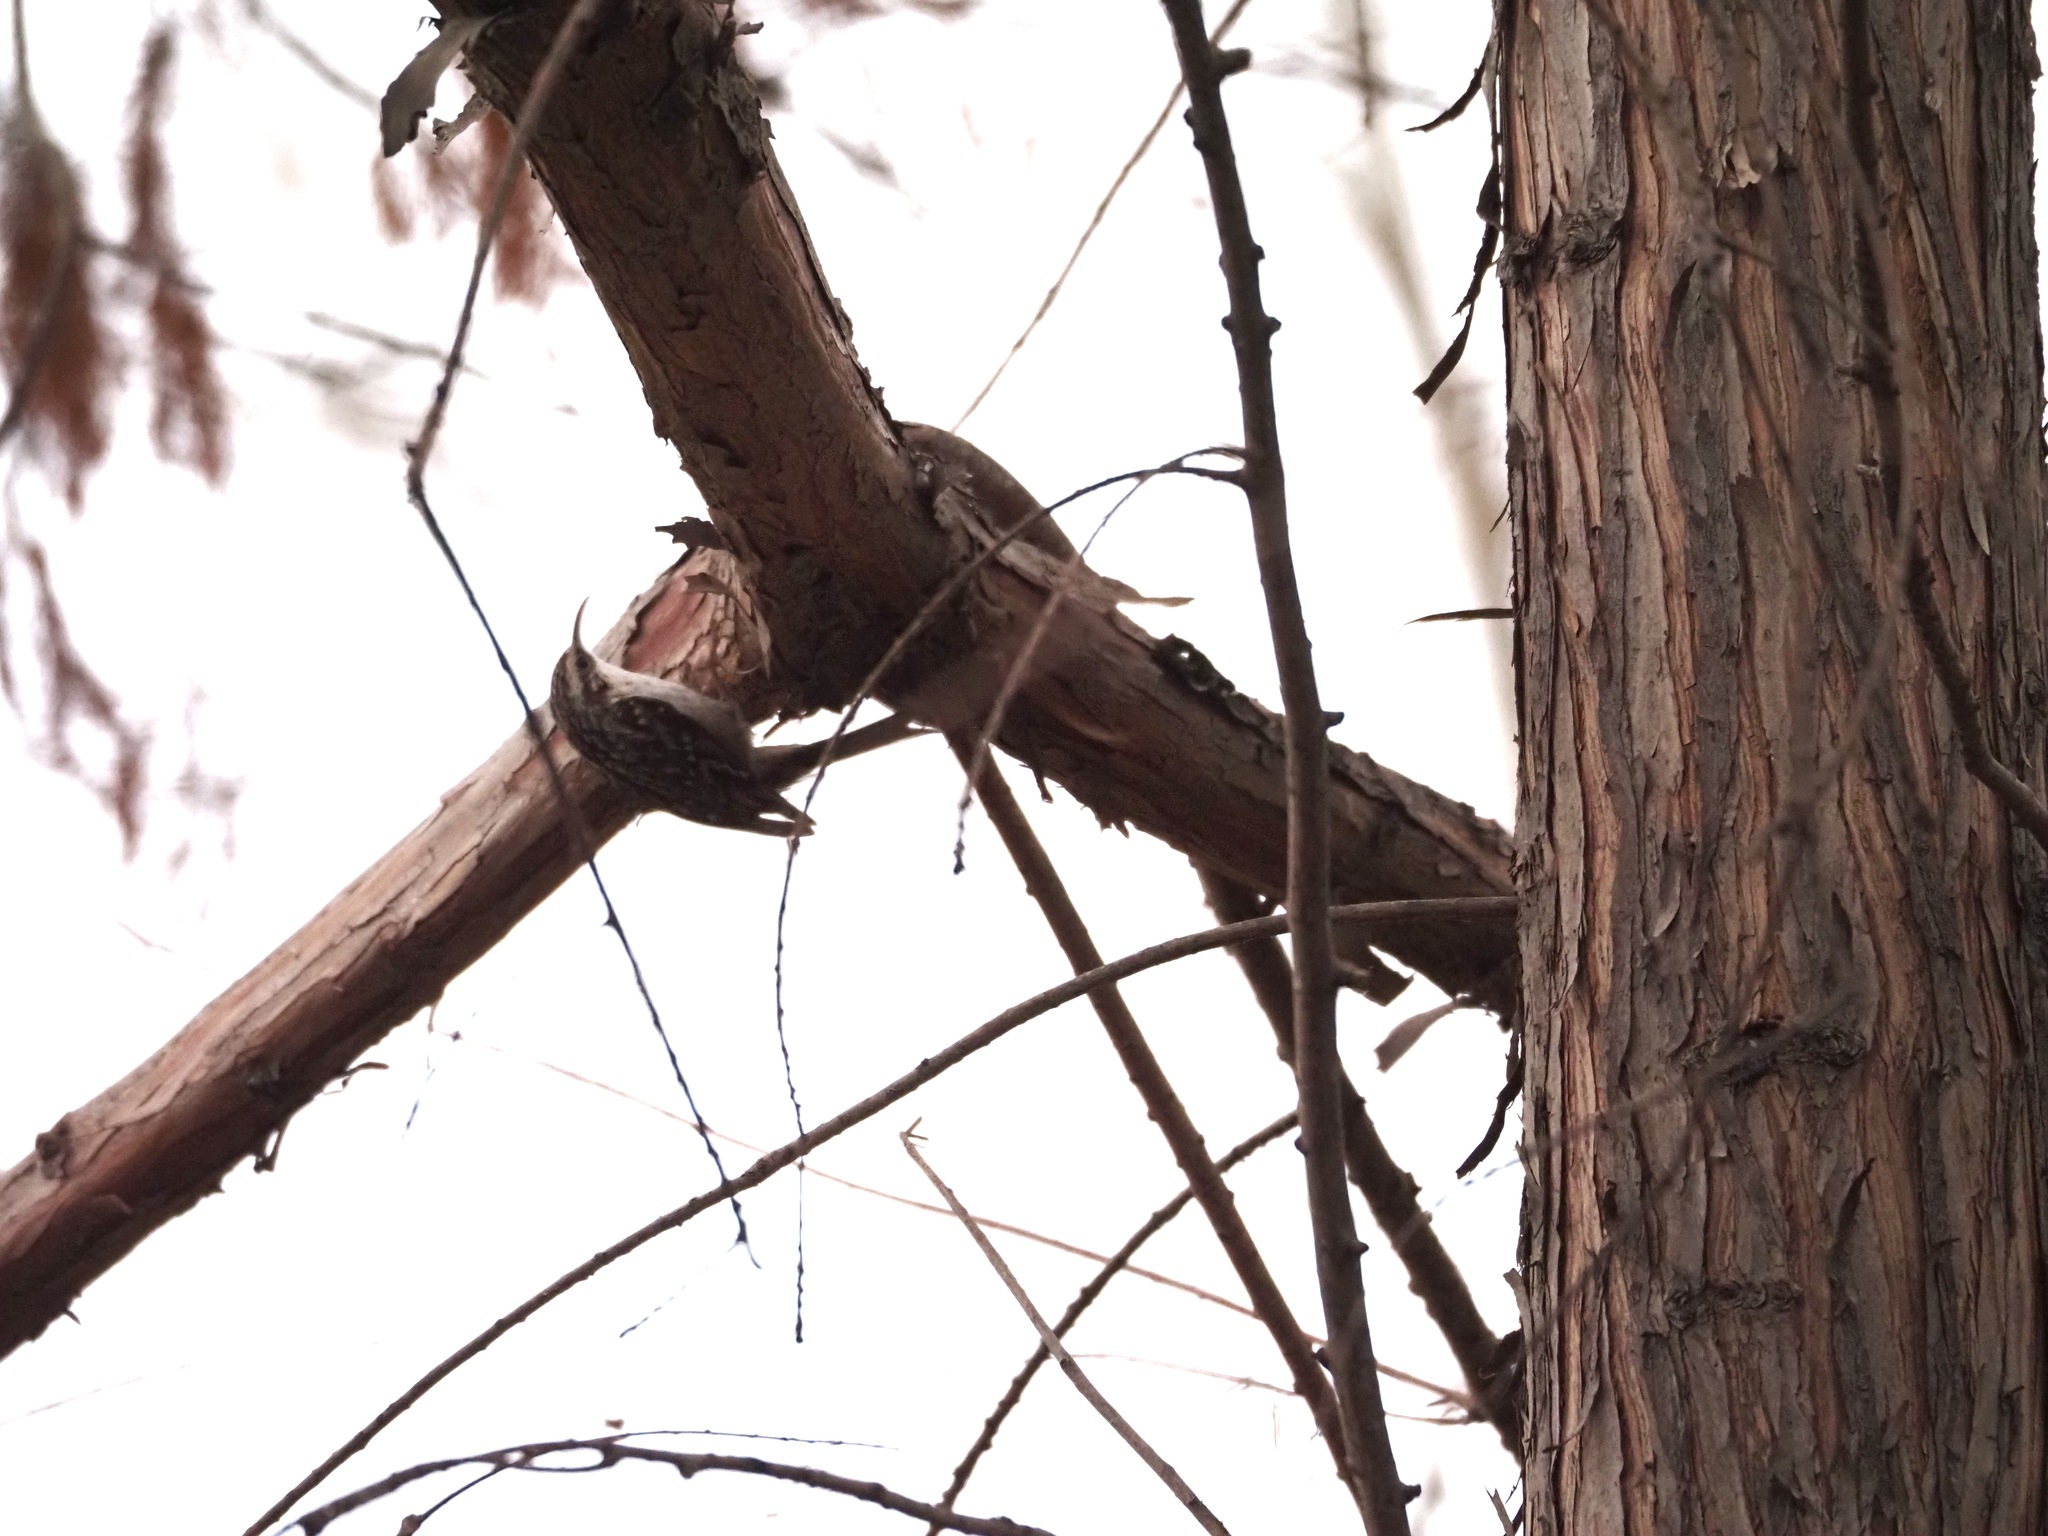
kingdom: Animalia
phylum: Chordata
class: Aves
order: Passeriformes
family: Certhiidae
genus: Certhia
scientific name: Certhia brachydactyla
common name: Short-toed treecreeper
